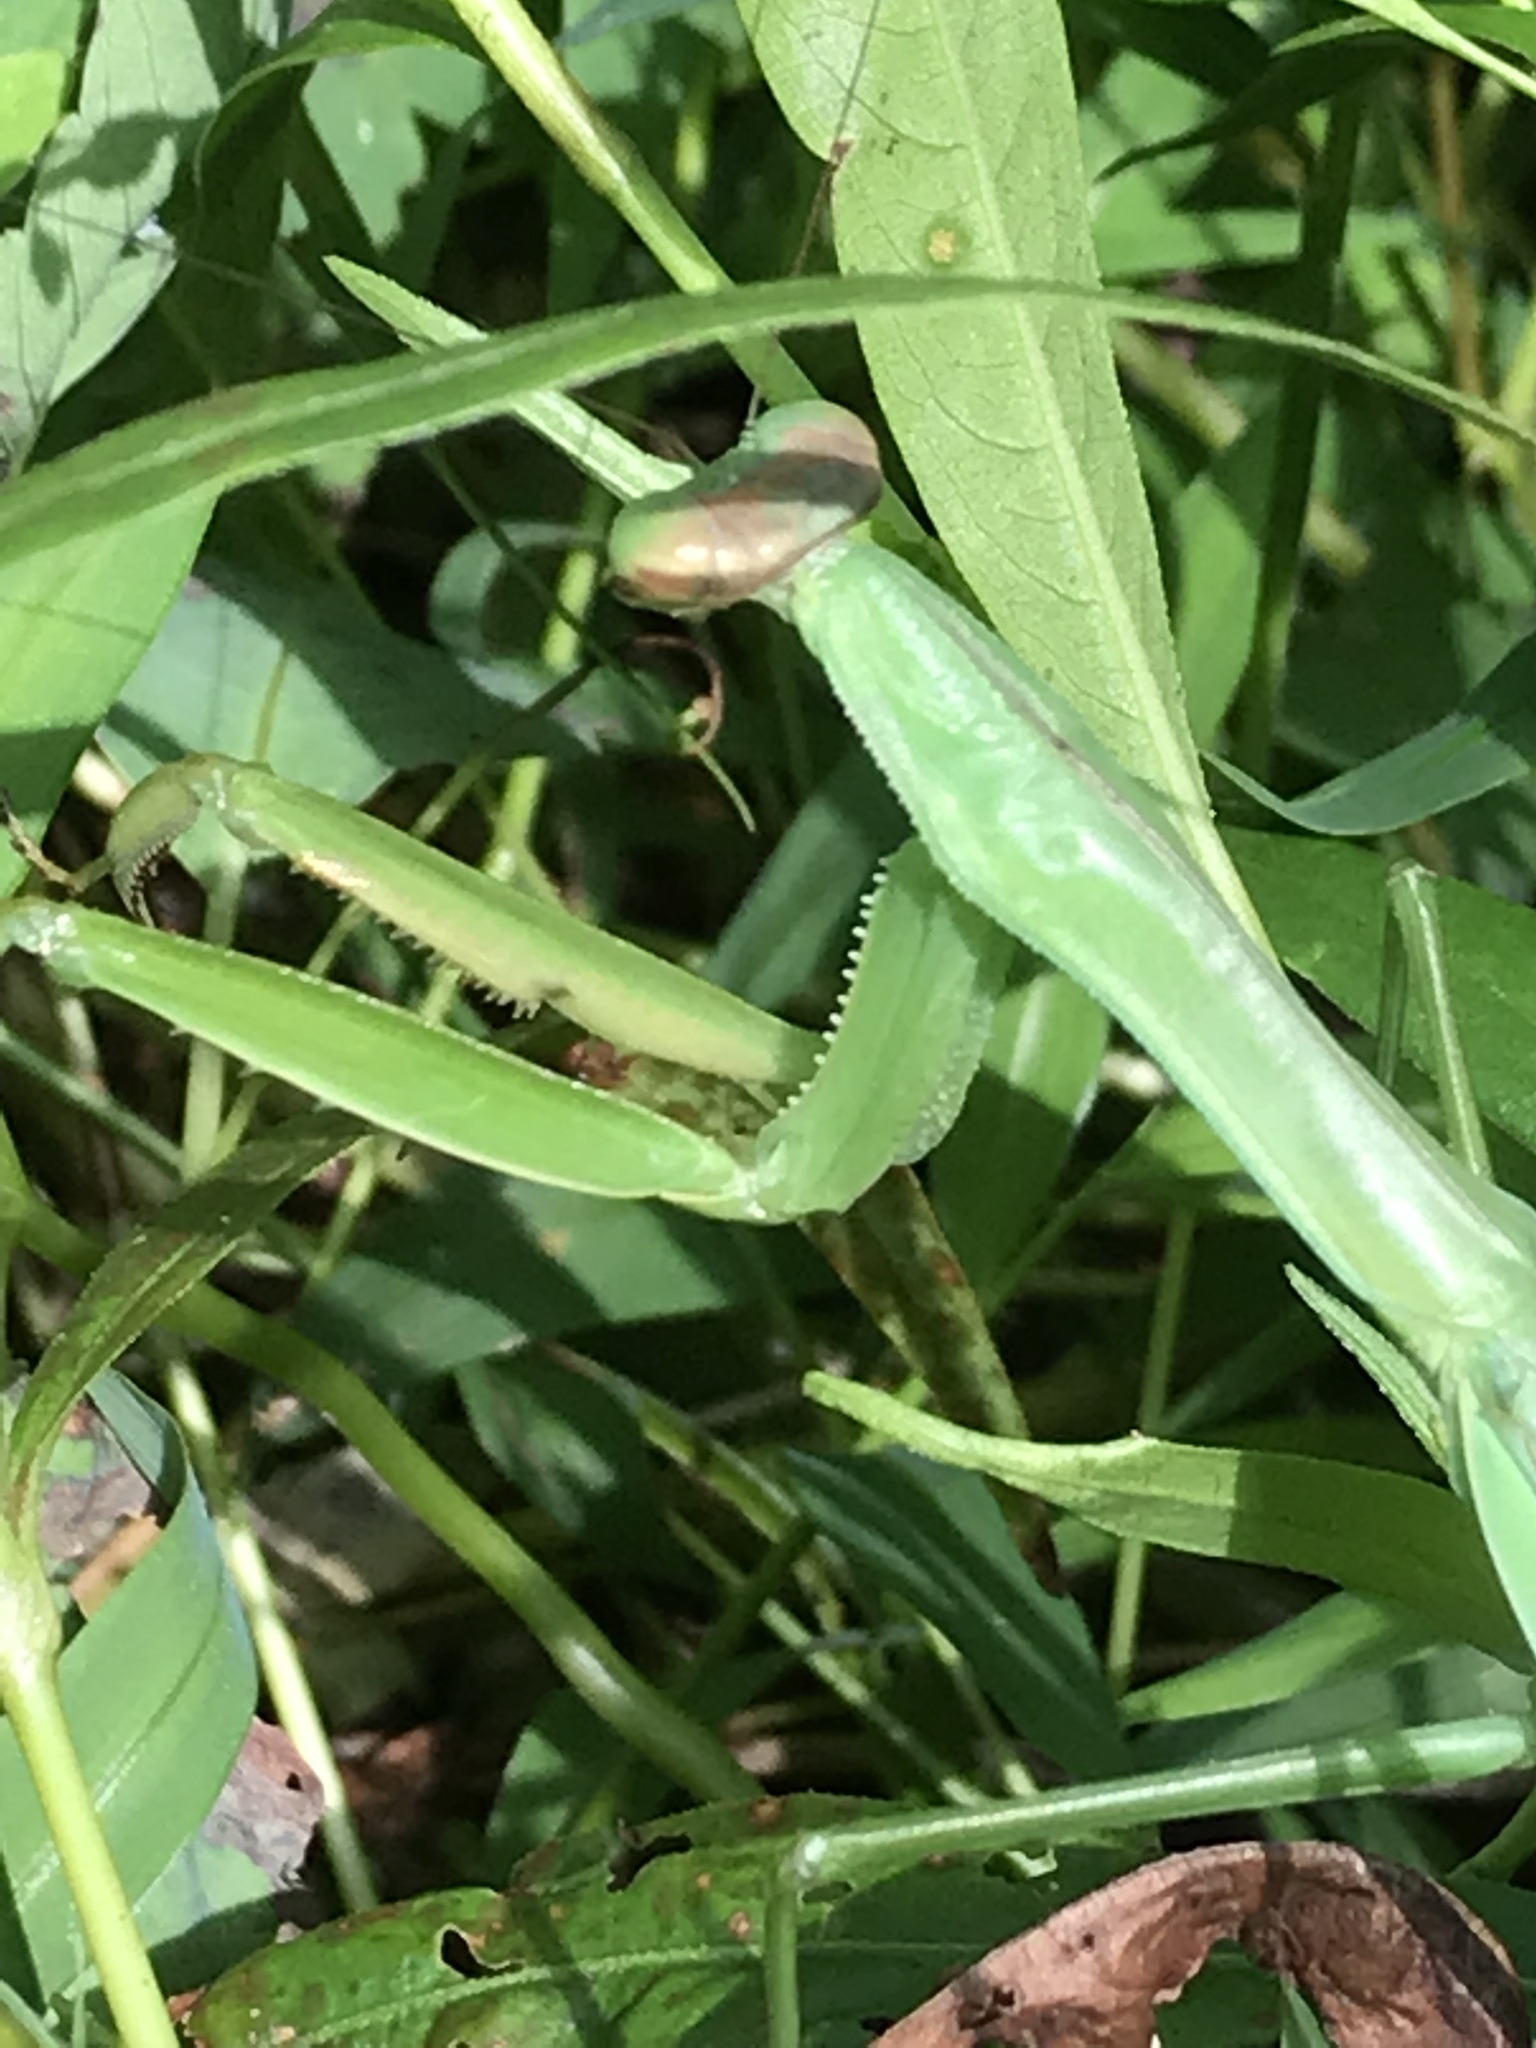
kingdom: Animalia
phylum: Arthropoda
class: Insecta
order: Mantodea
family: Mantidae
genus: Tenodera
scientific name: Tenodera sinensis
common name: Chinese mantis
